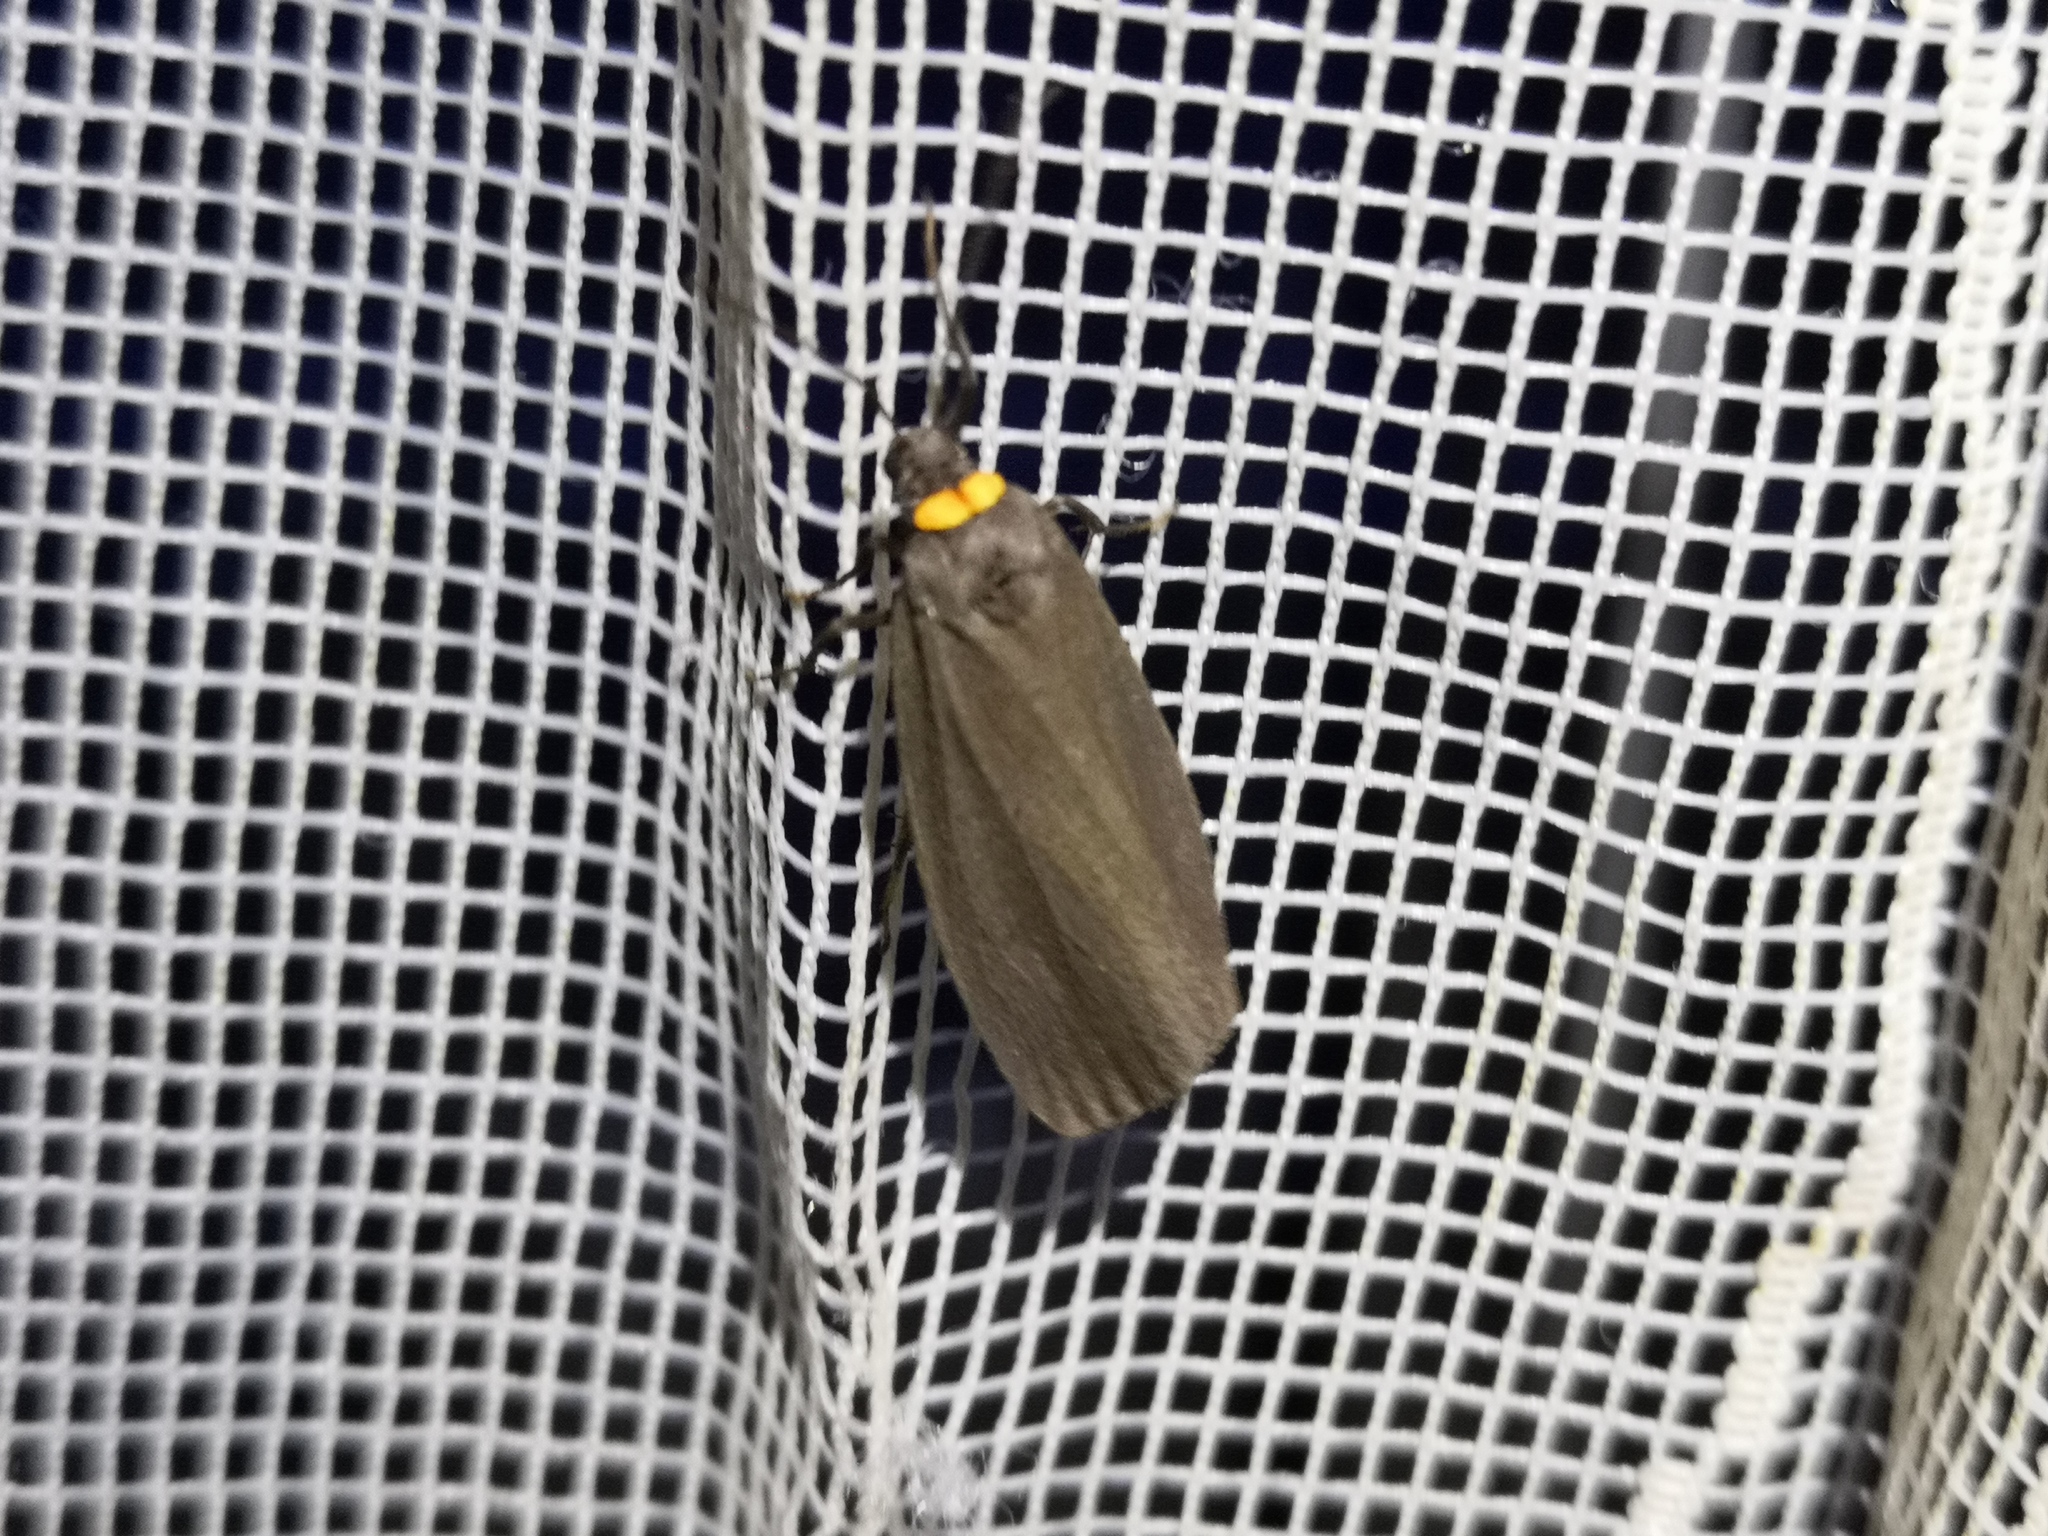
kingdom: Animalia
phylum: Arthropoda
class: Insecta
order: Lepidoptera
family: Erebidae
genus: Atolmis
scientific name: Atolmis rubricollis
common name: Red-necked footman
